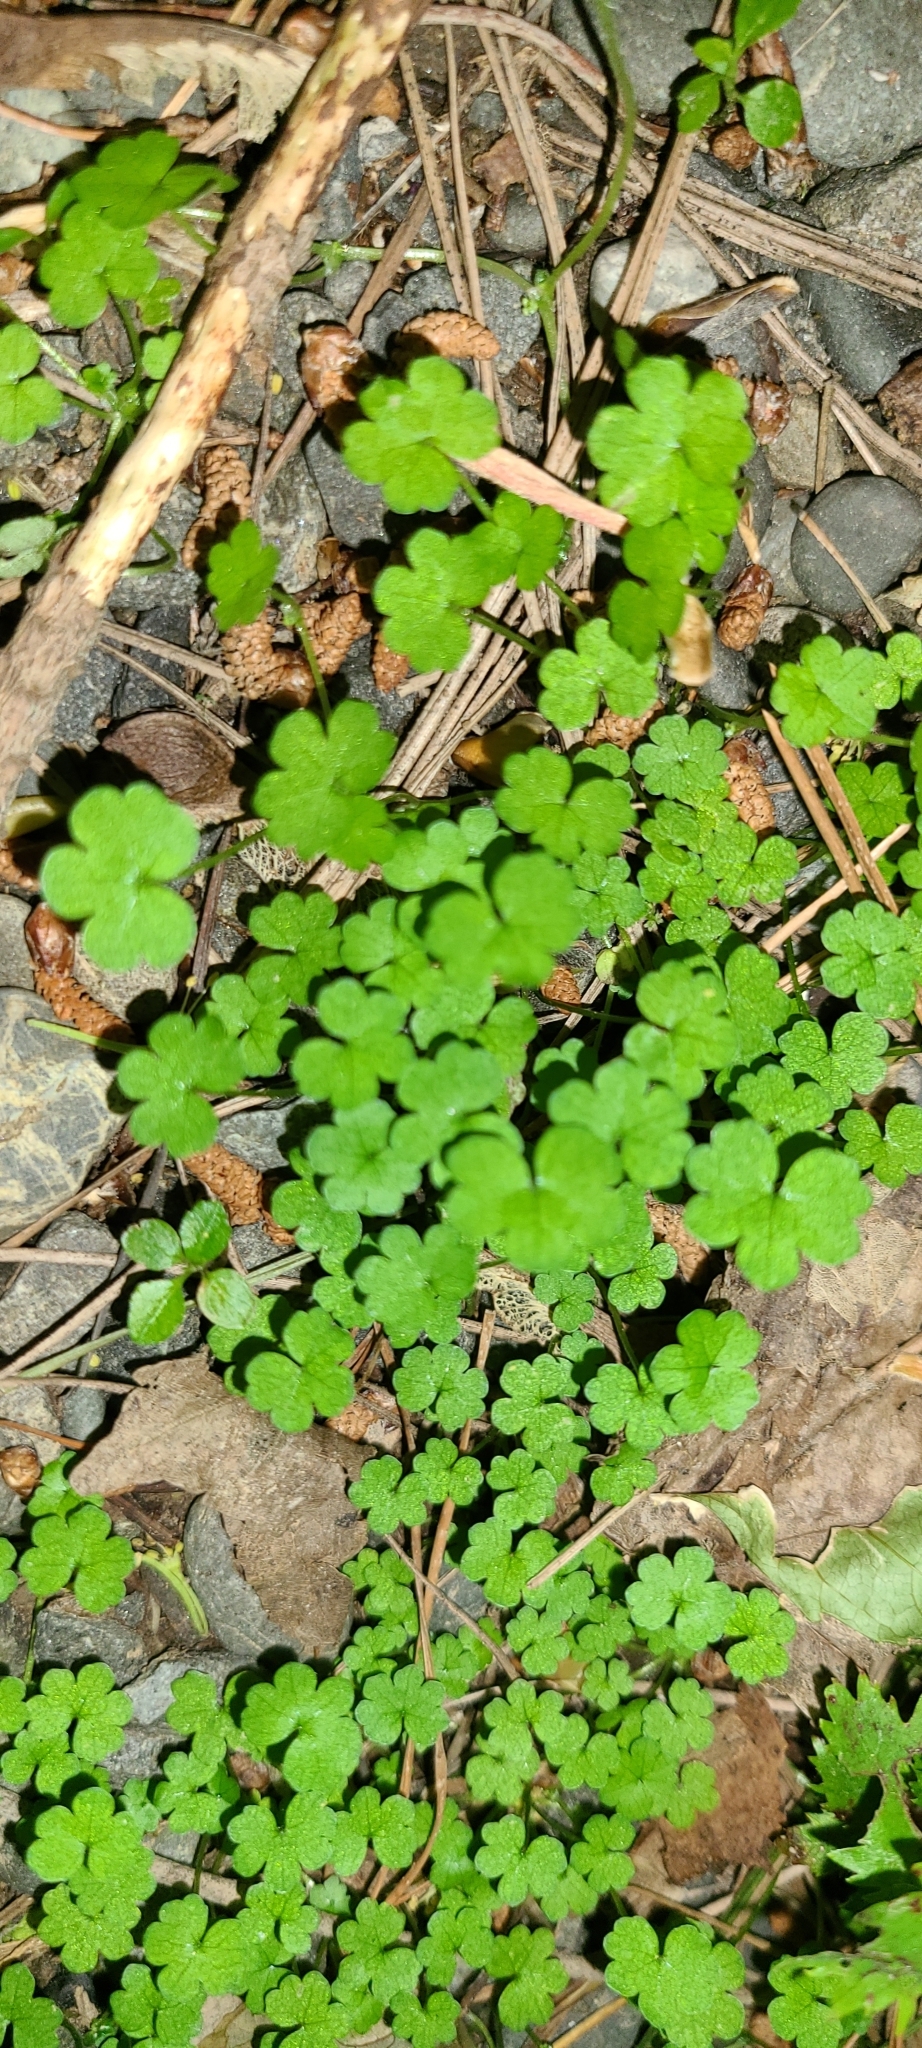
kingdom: Plantae
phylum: Tracheophyta
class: Magnoliopsida
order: Apiales
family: Araliaceae
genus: Hydrocotyle
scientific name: Hydrocotyle elongata
